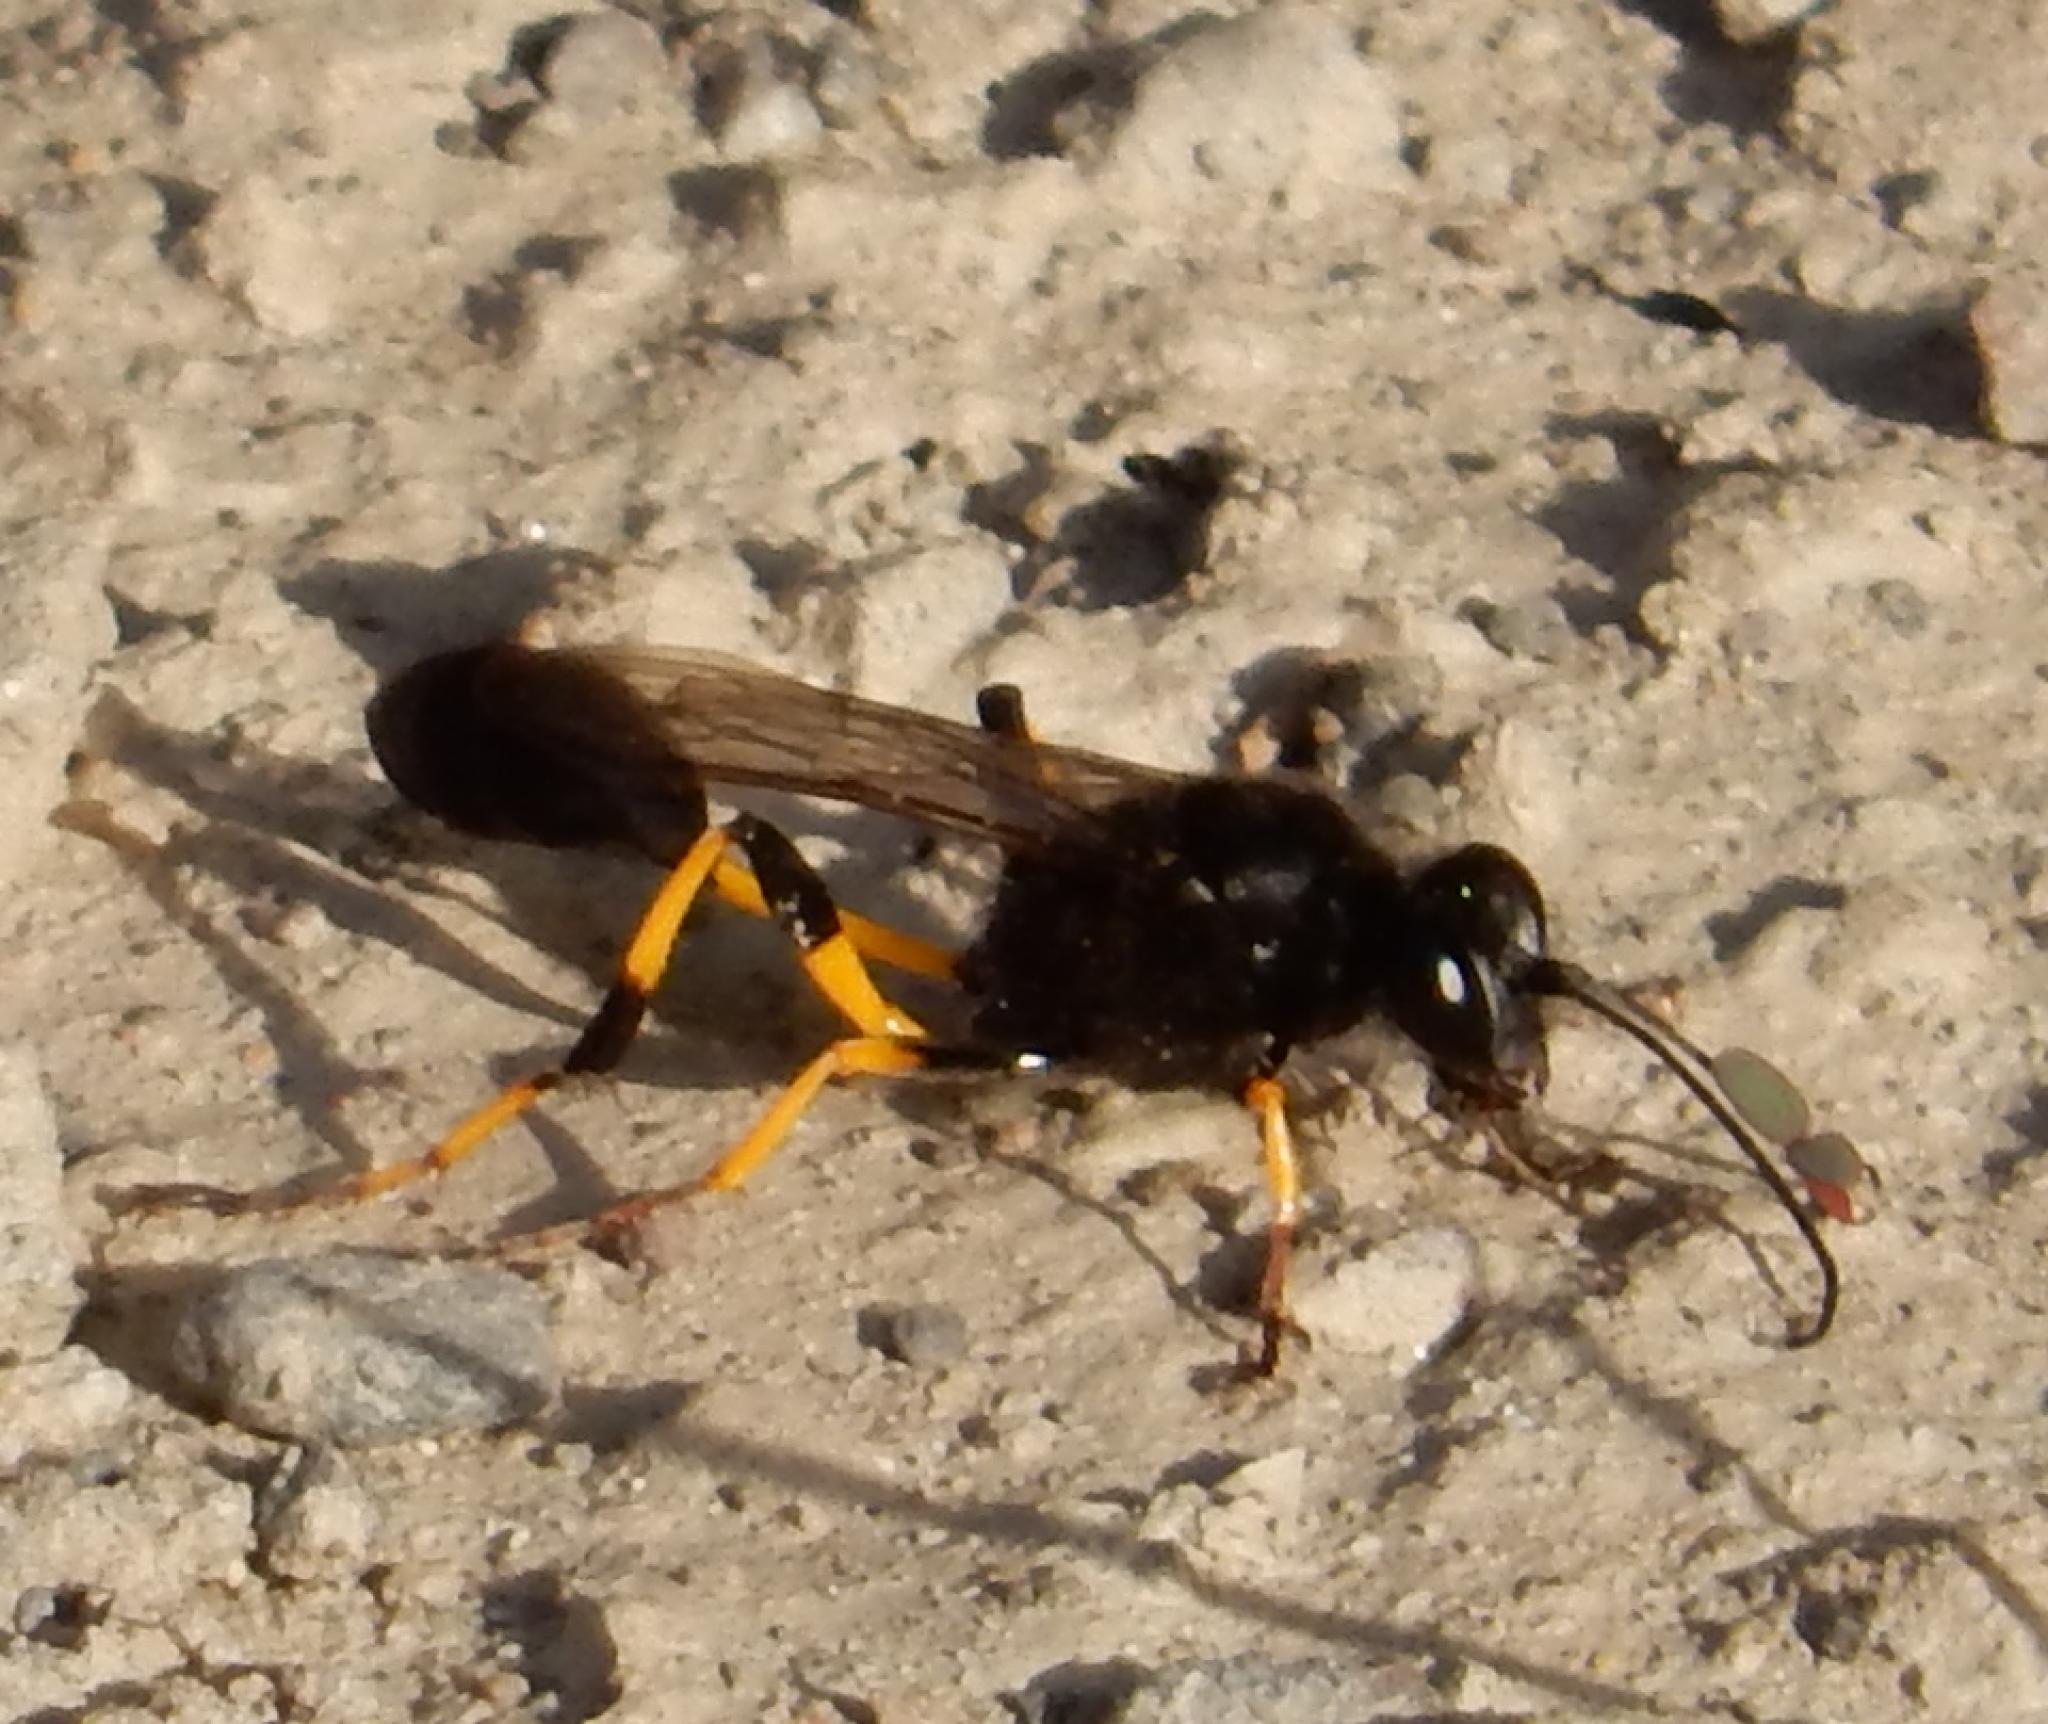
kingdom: Animalia
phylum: Arthropoda
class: Insecta
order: Hymenoptera
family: Sphecidae
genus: Sceliphron
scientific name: Sceliphron spirifex
